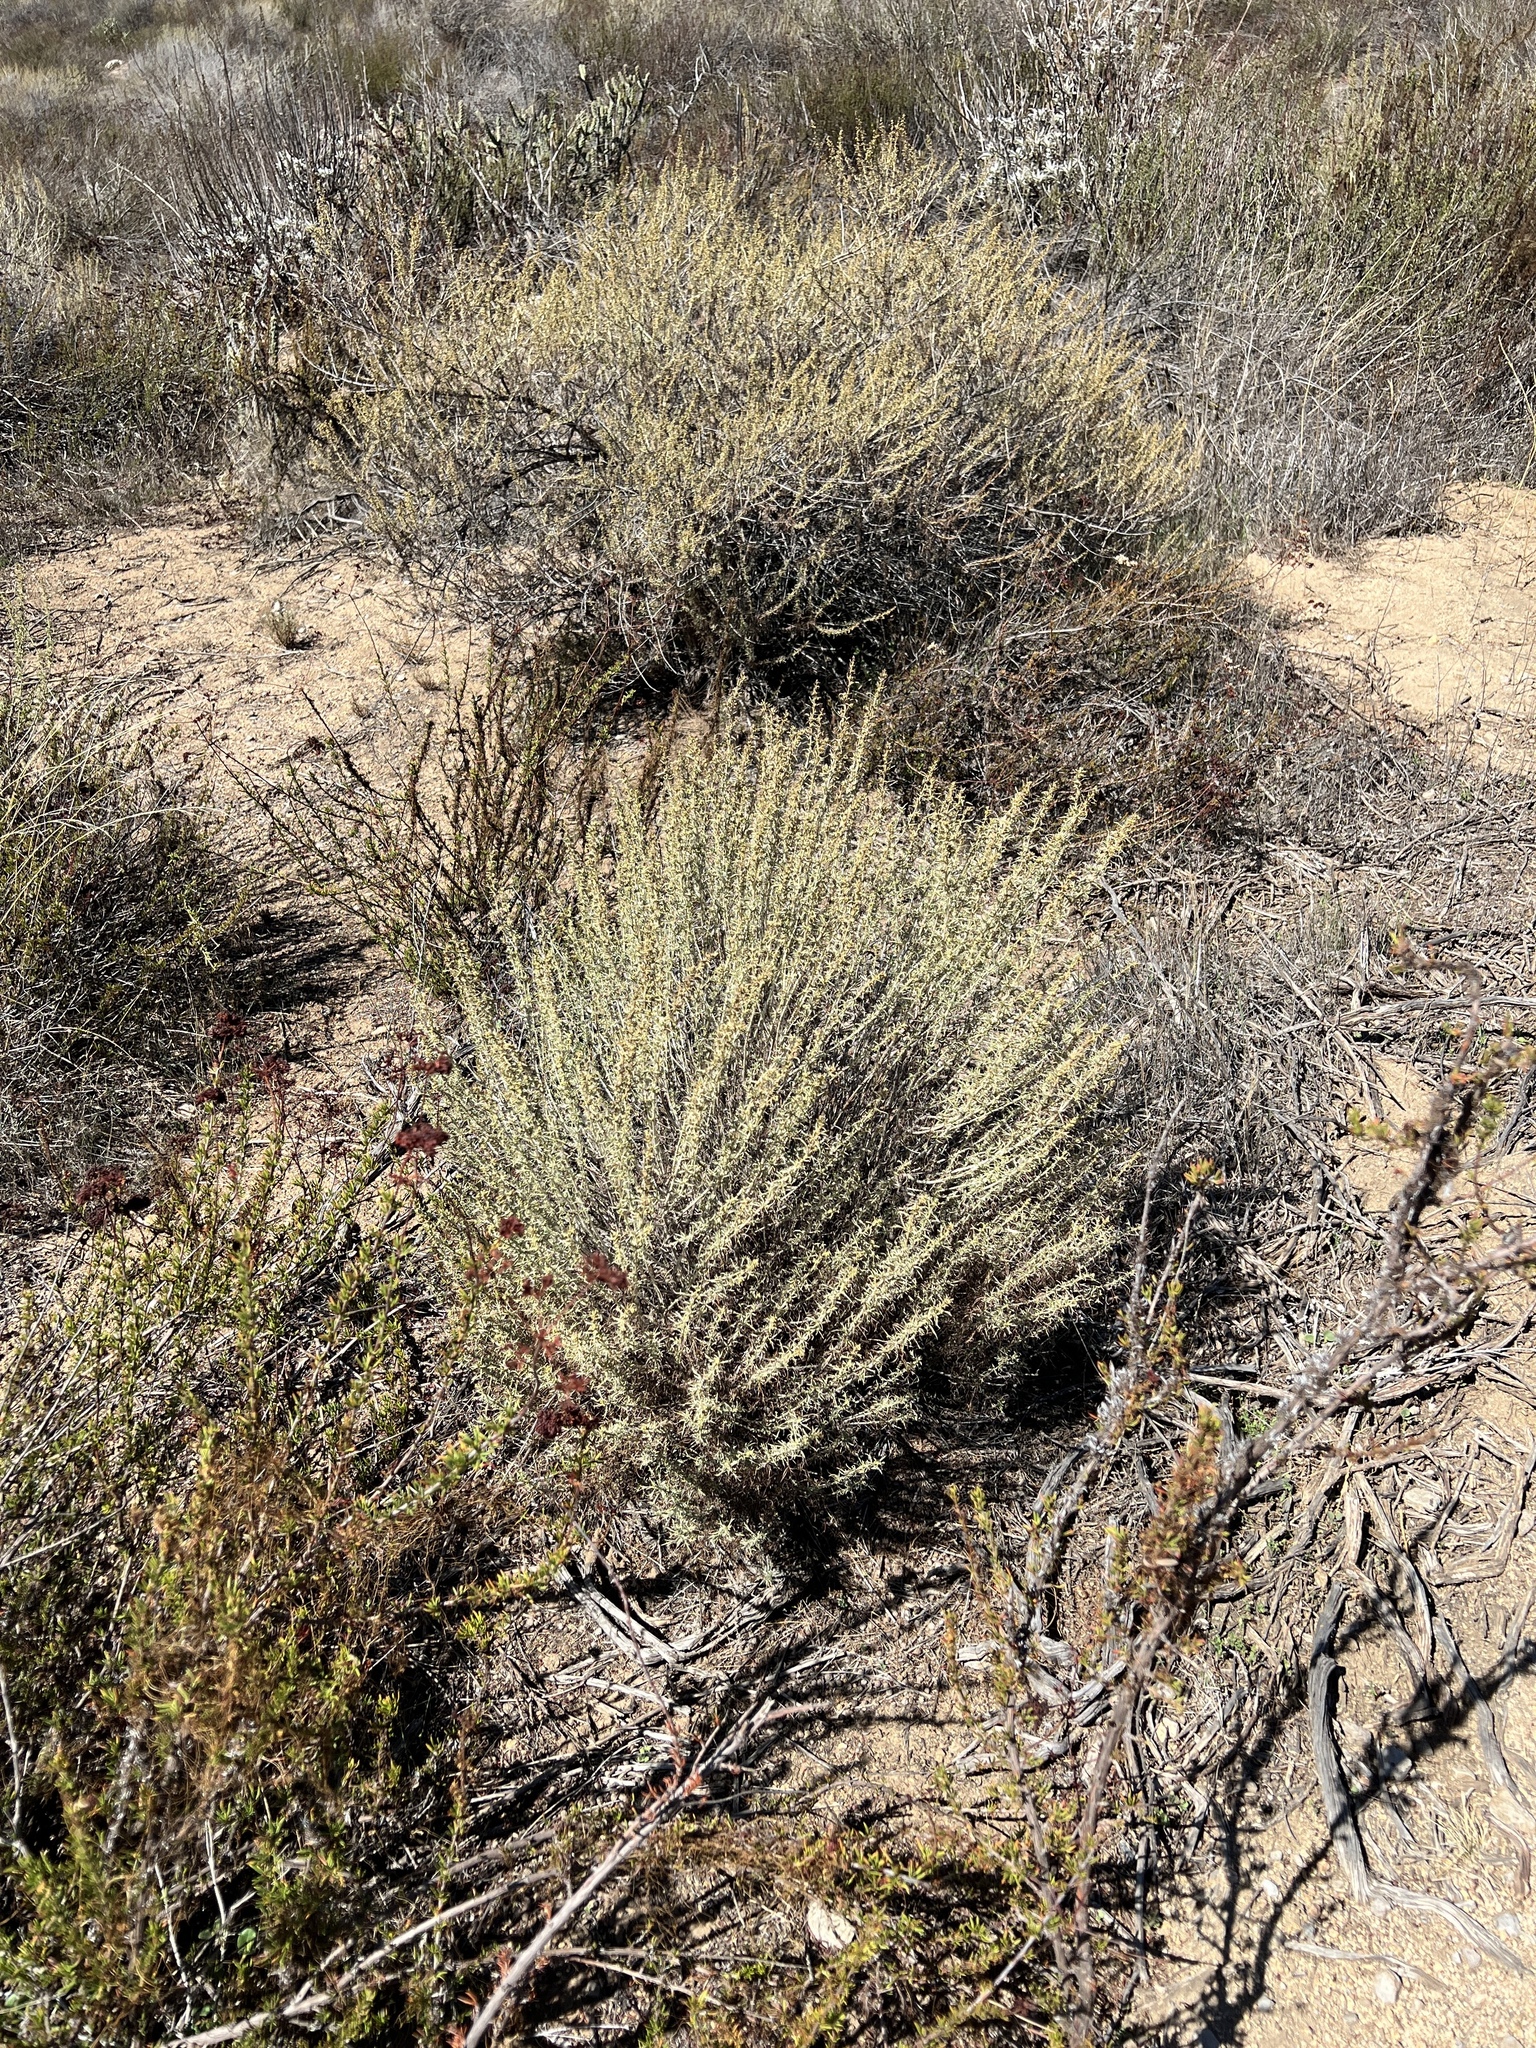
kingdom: Plantae
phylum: Tracheophyta
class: Magnoliopsida
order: Asterales
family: Asteraceae
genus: Artemisia
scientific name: Artemisia californica
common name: California sagebrush
